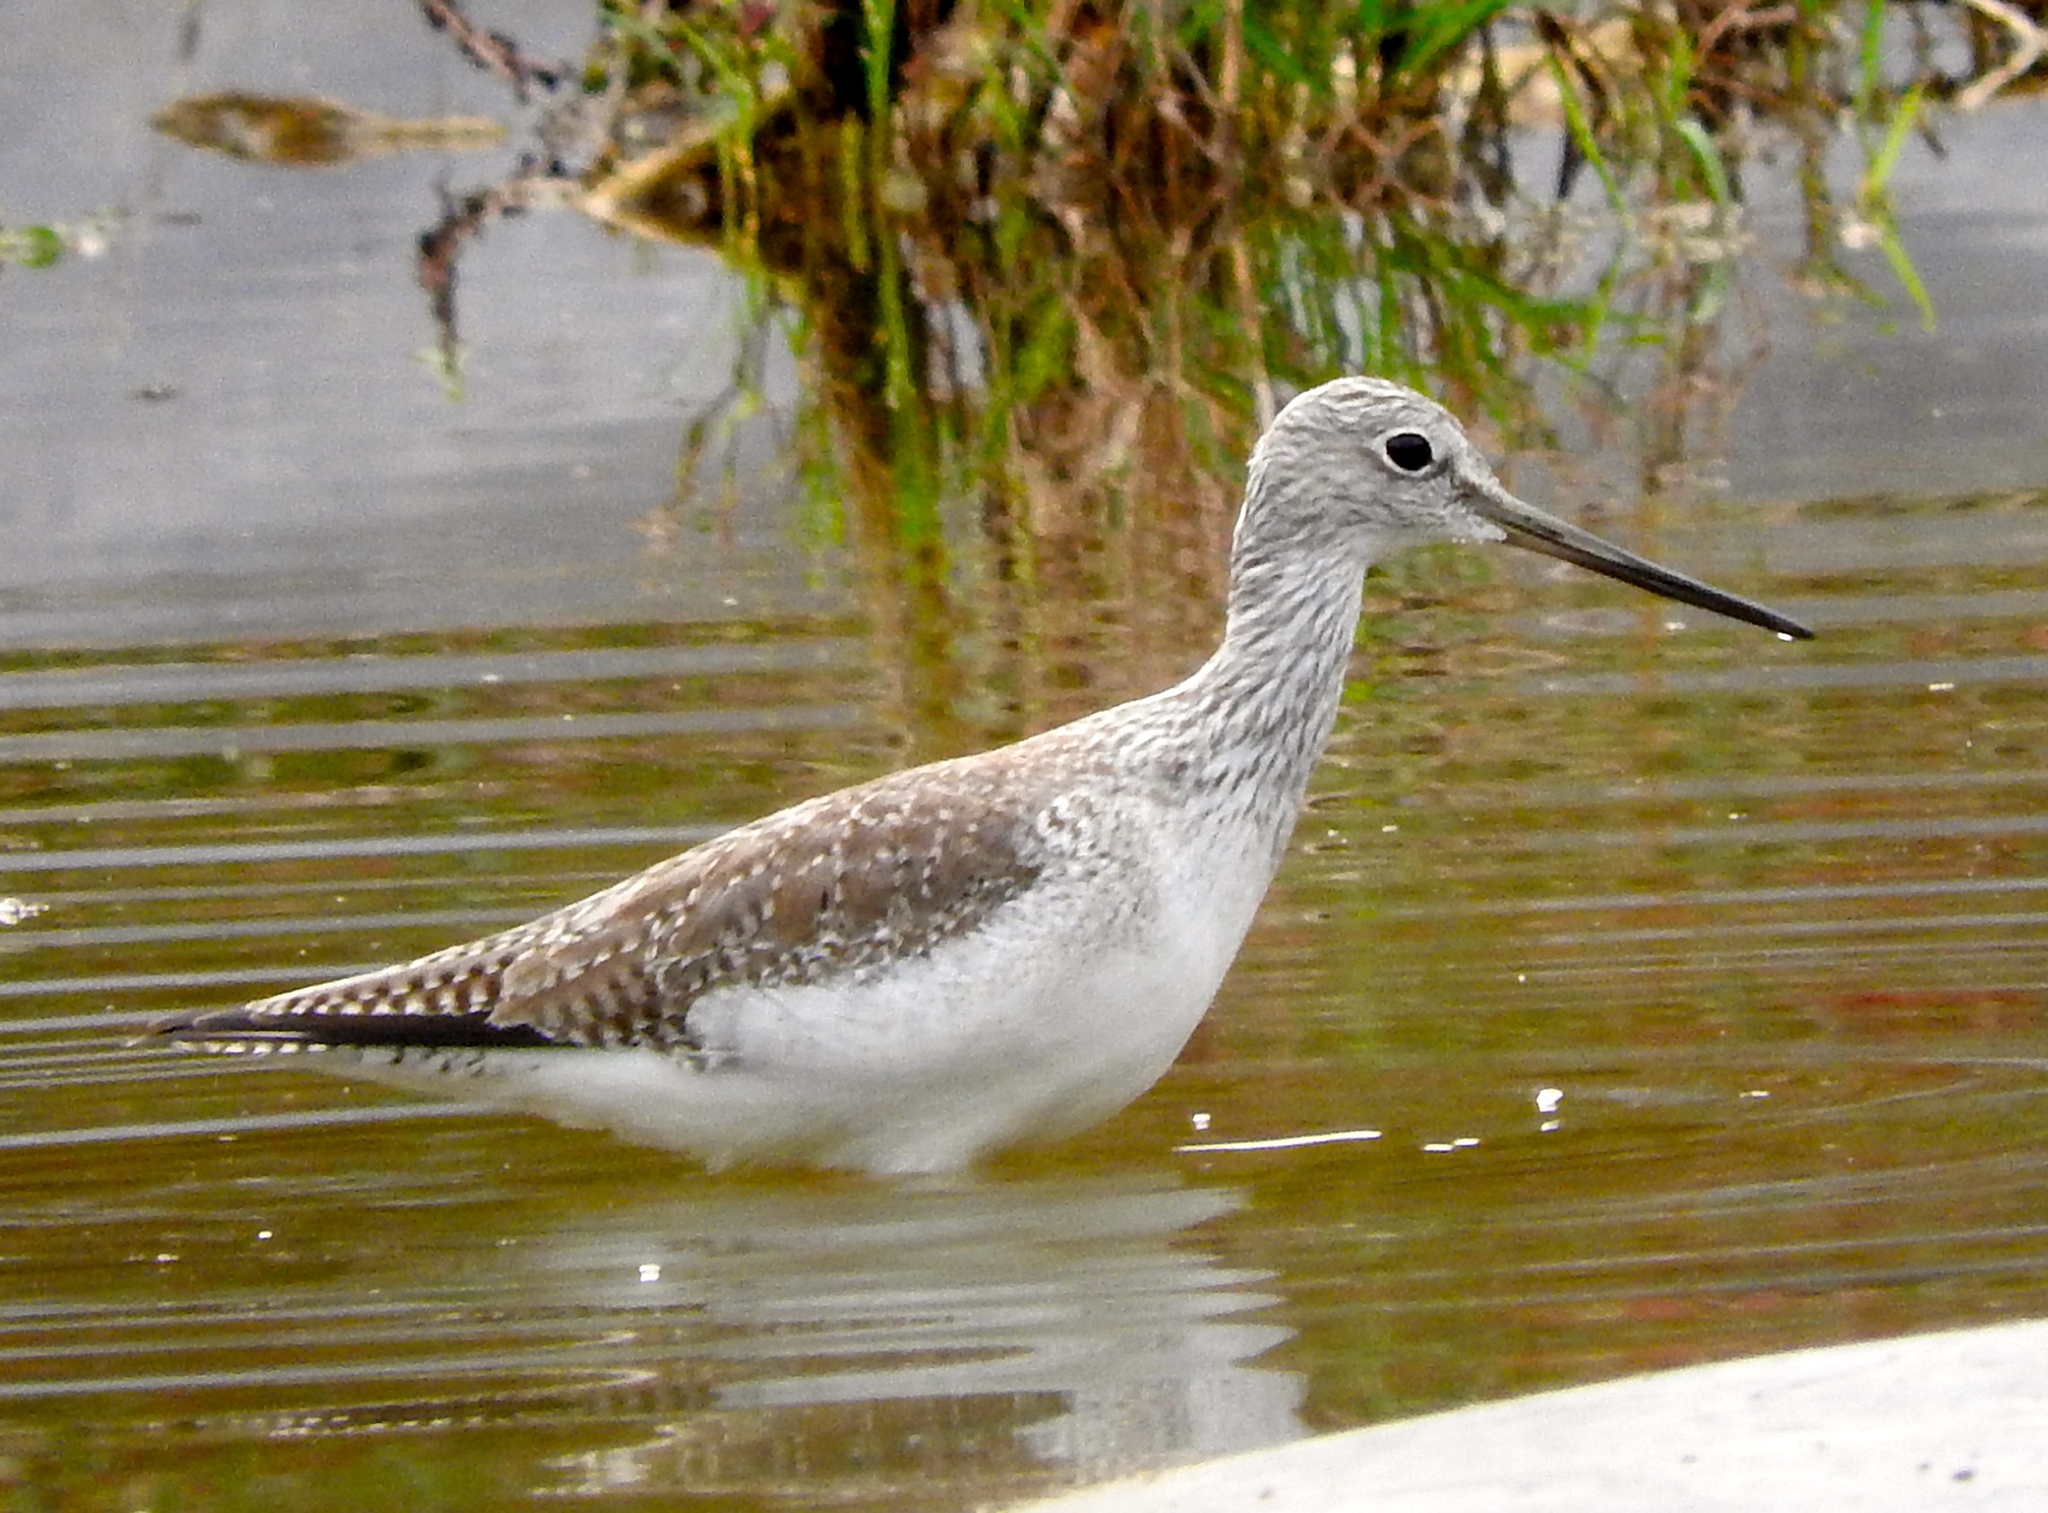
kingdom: Animalia
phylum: Chordata
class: Aves
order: Charadriiformes
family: Scolopacidae
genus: Tringa
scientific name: Tringa melanoleuca
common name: Greater yellowlegs
